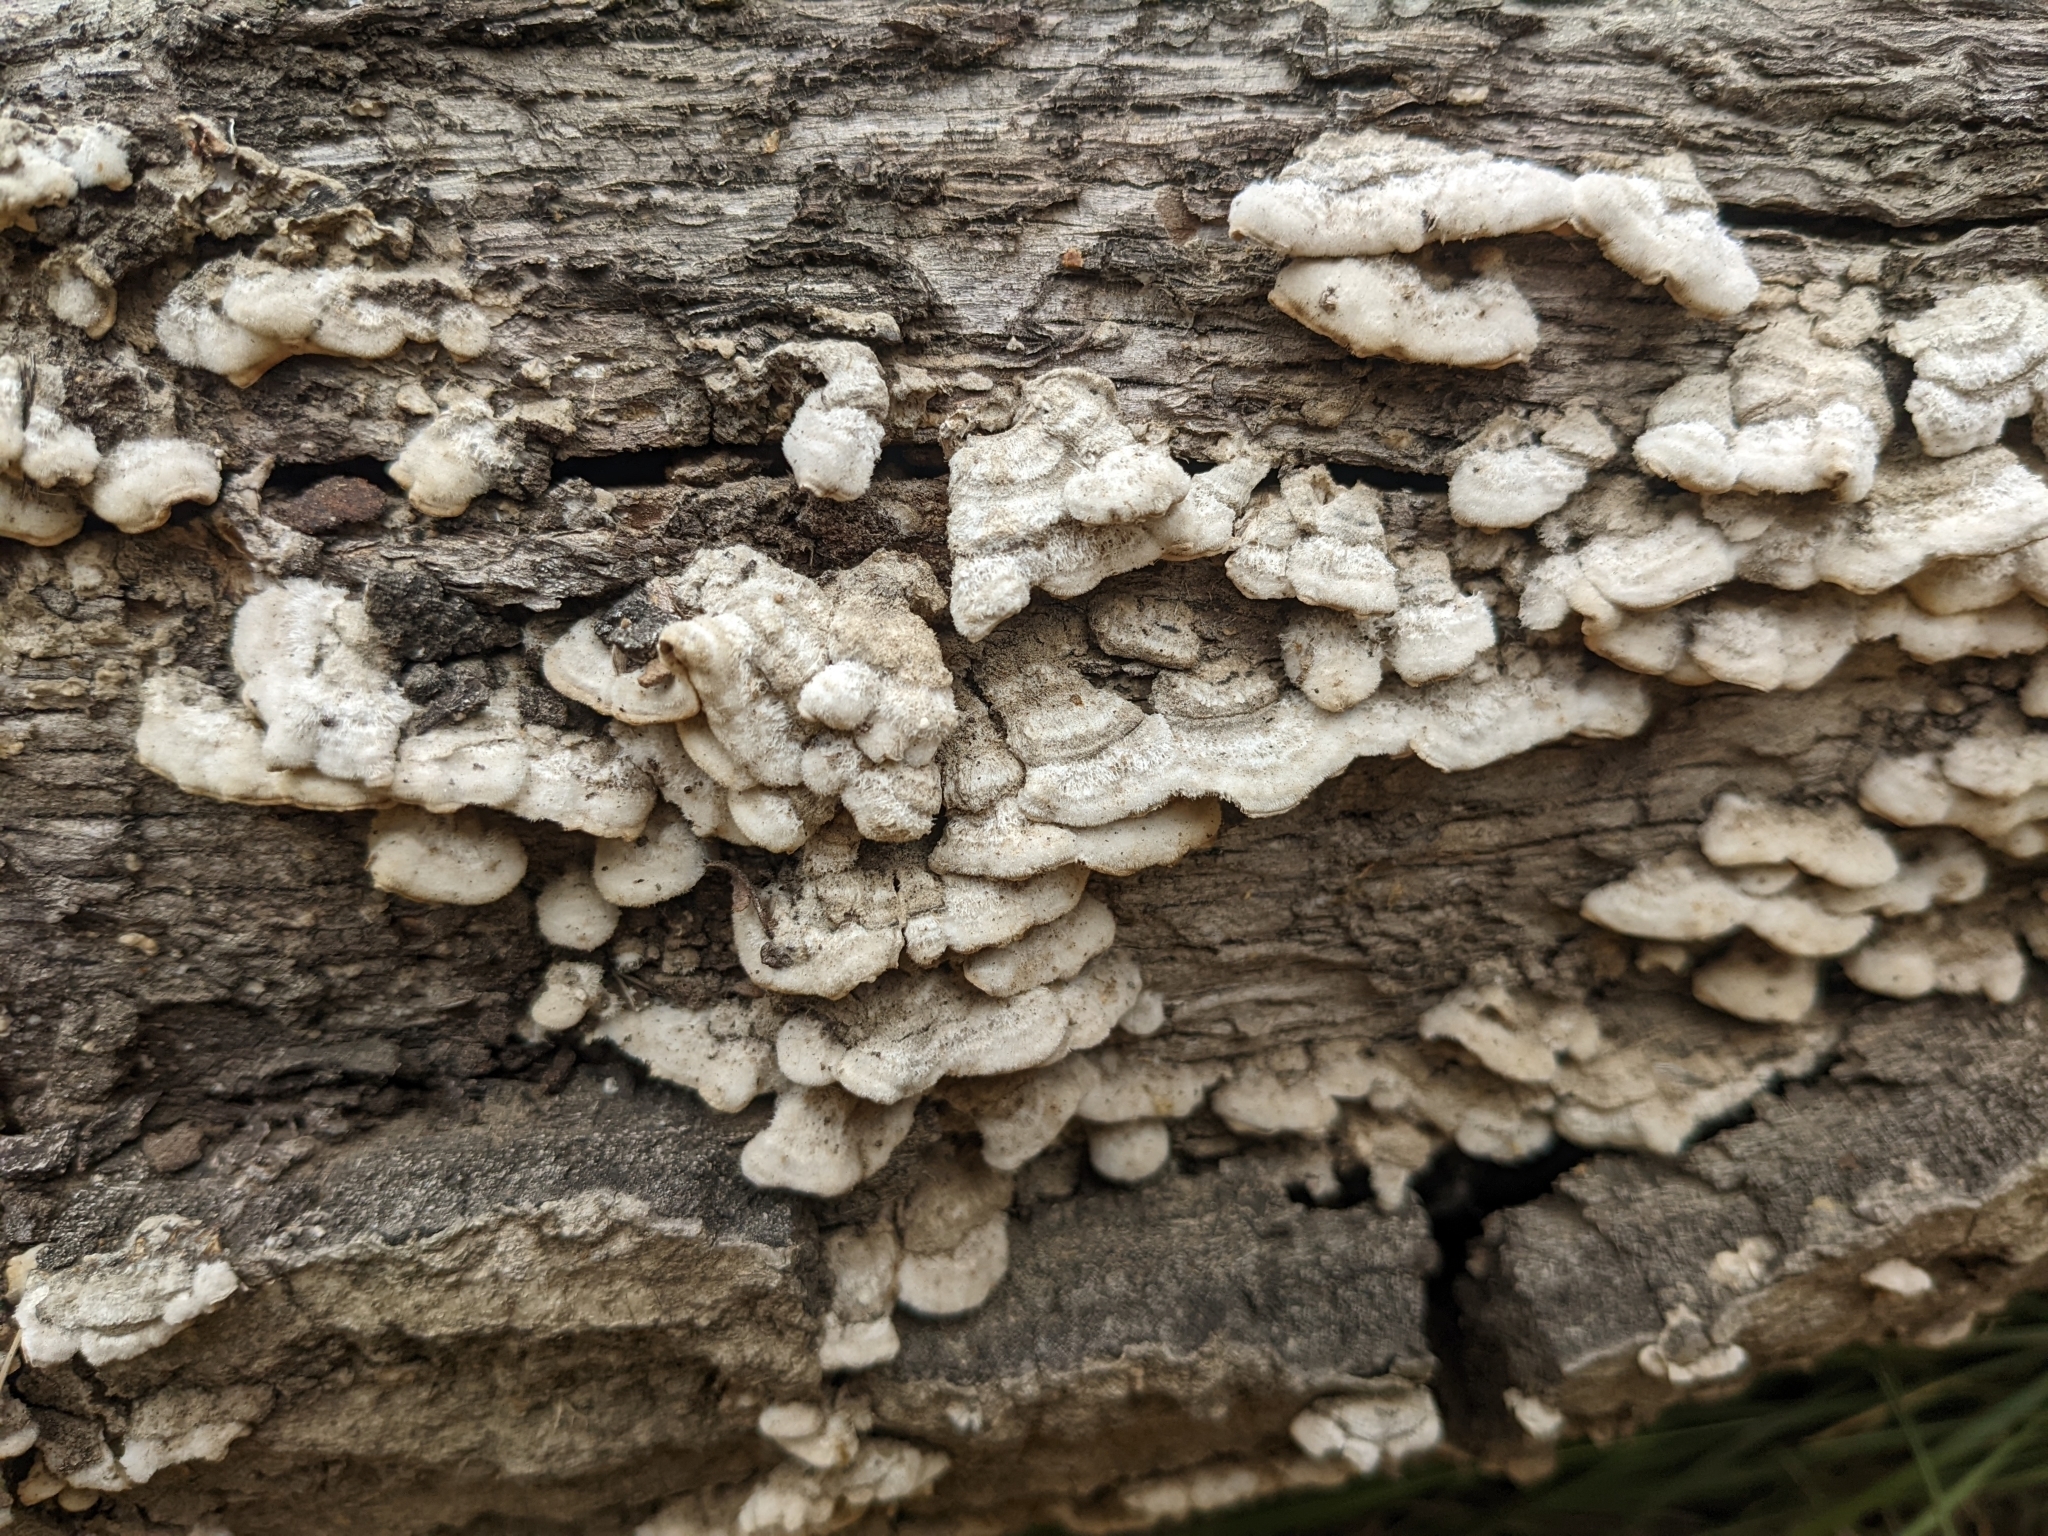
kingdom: Fungi
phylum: Basidiomycota
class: Agaricomycetes
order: Agaricales
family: Schizophyllaceae
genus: Schizophyllum
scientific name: Schizophyllum commune
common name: Common porecrust
